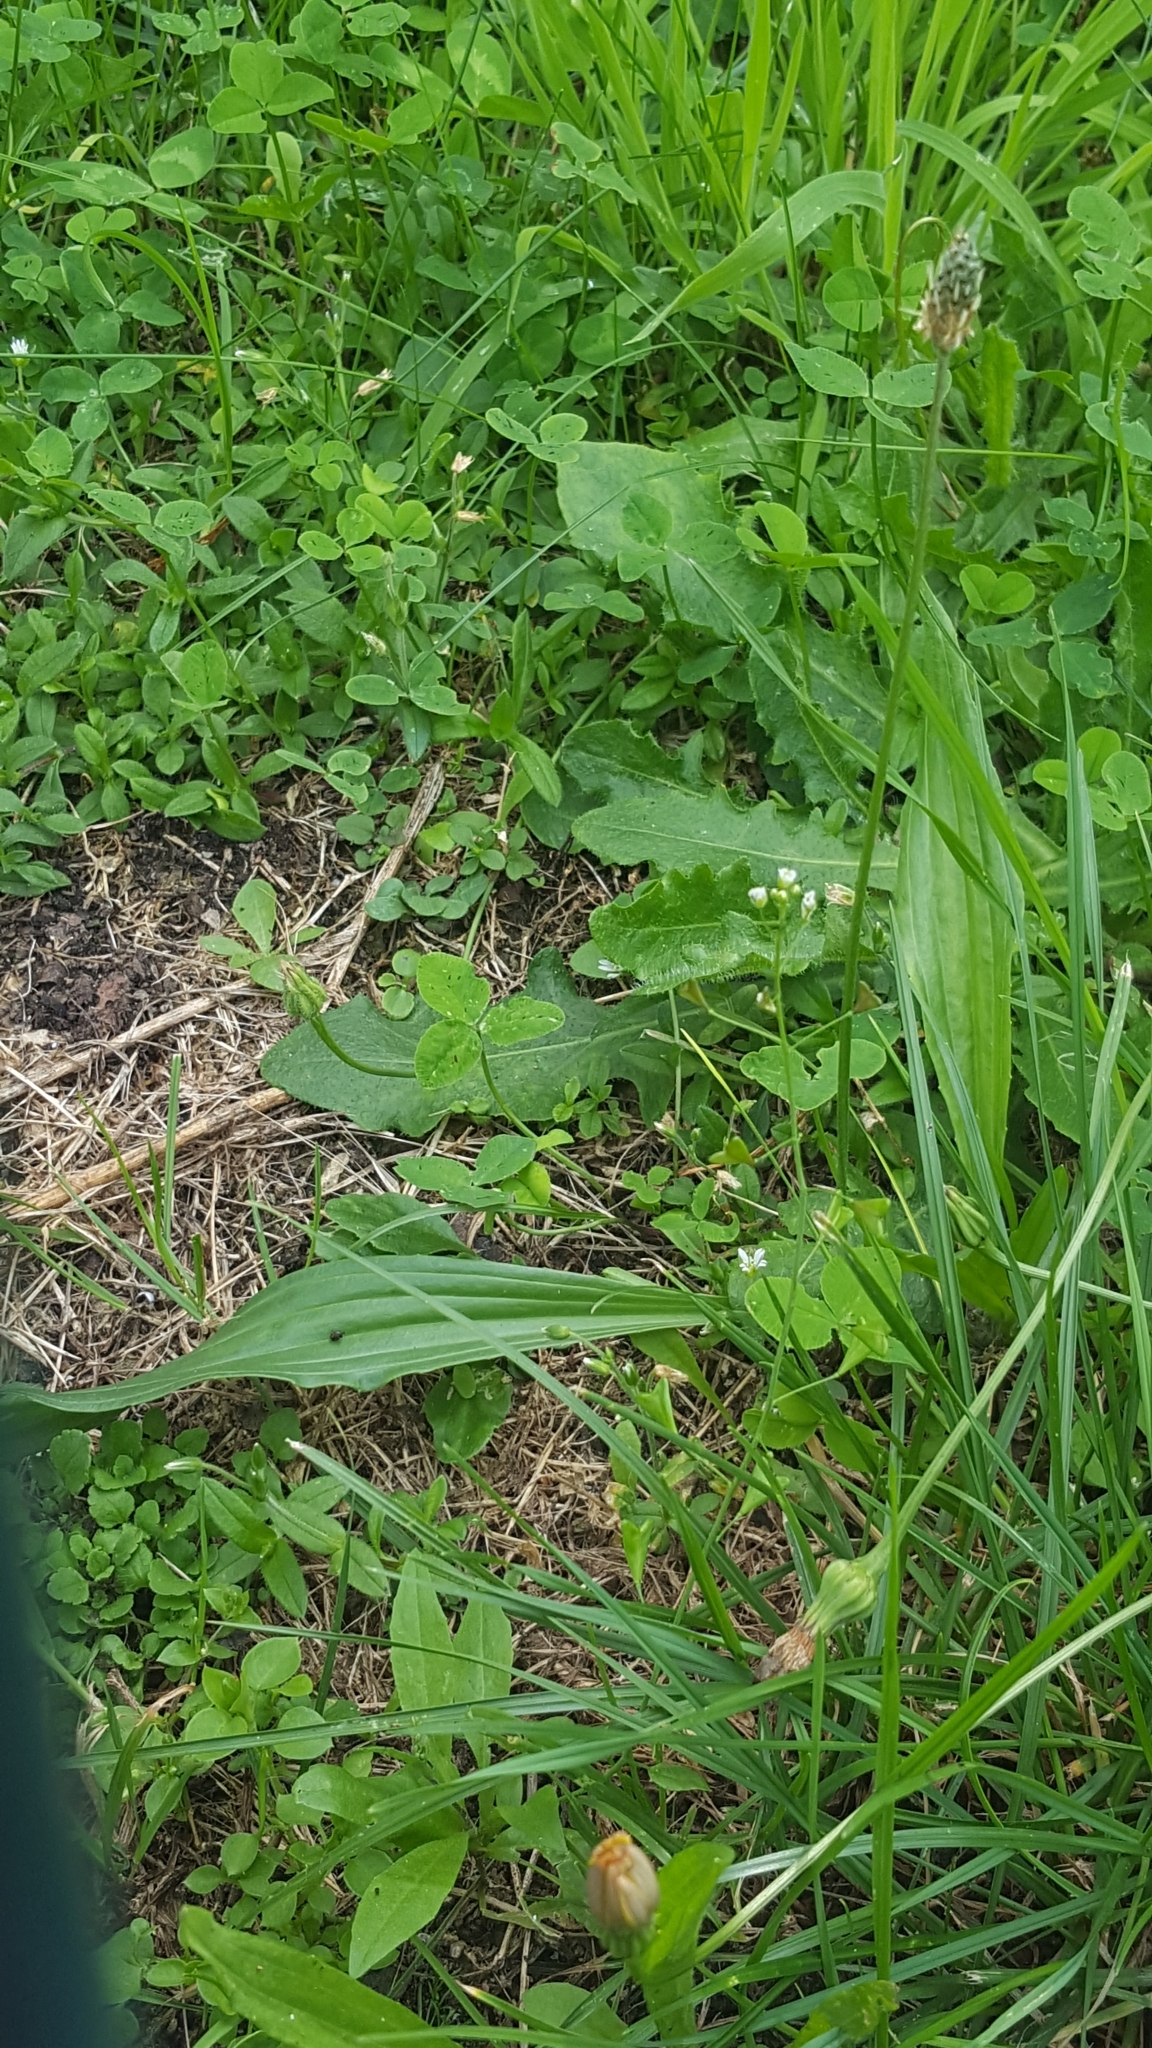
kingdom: Plantae
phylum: Tracheophyta
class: Magnoliopsida
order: Lamiales
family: Plantaginaceae
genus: Plantago
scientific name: Plantago lanceolata
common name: Ribwort plantain
